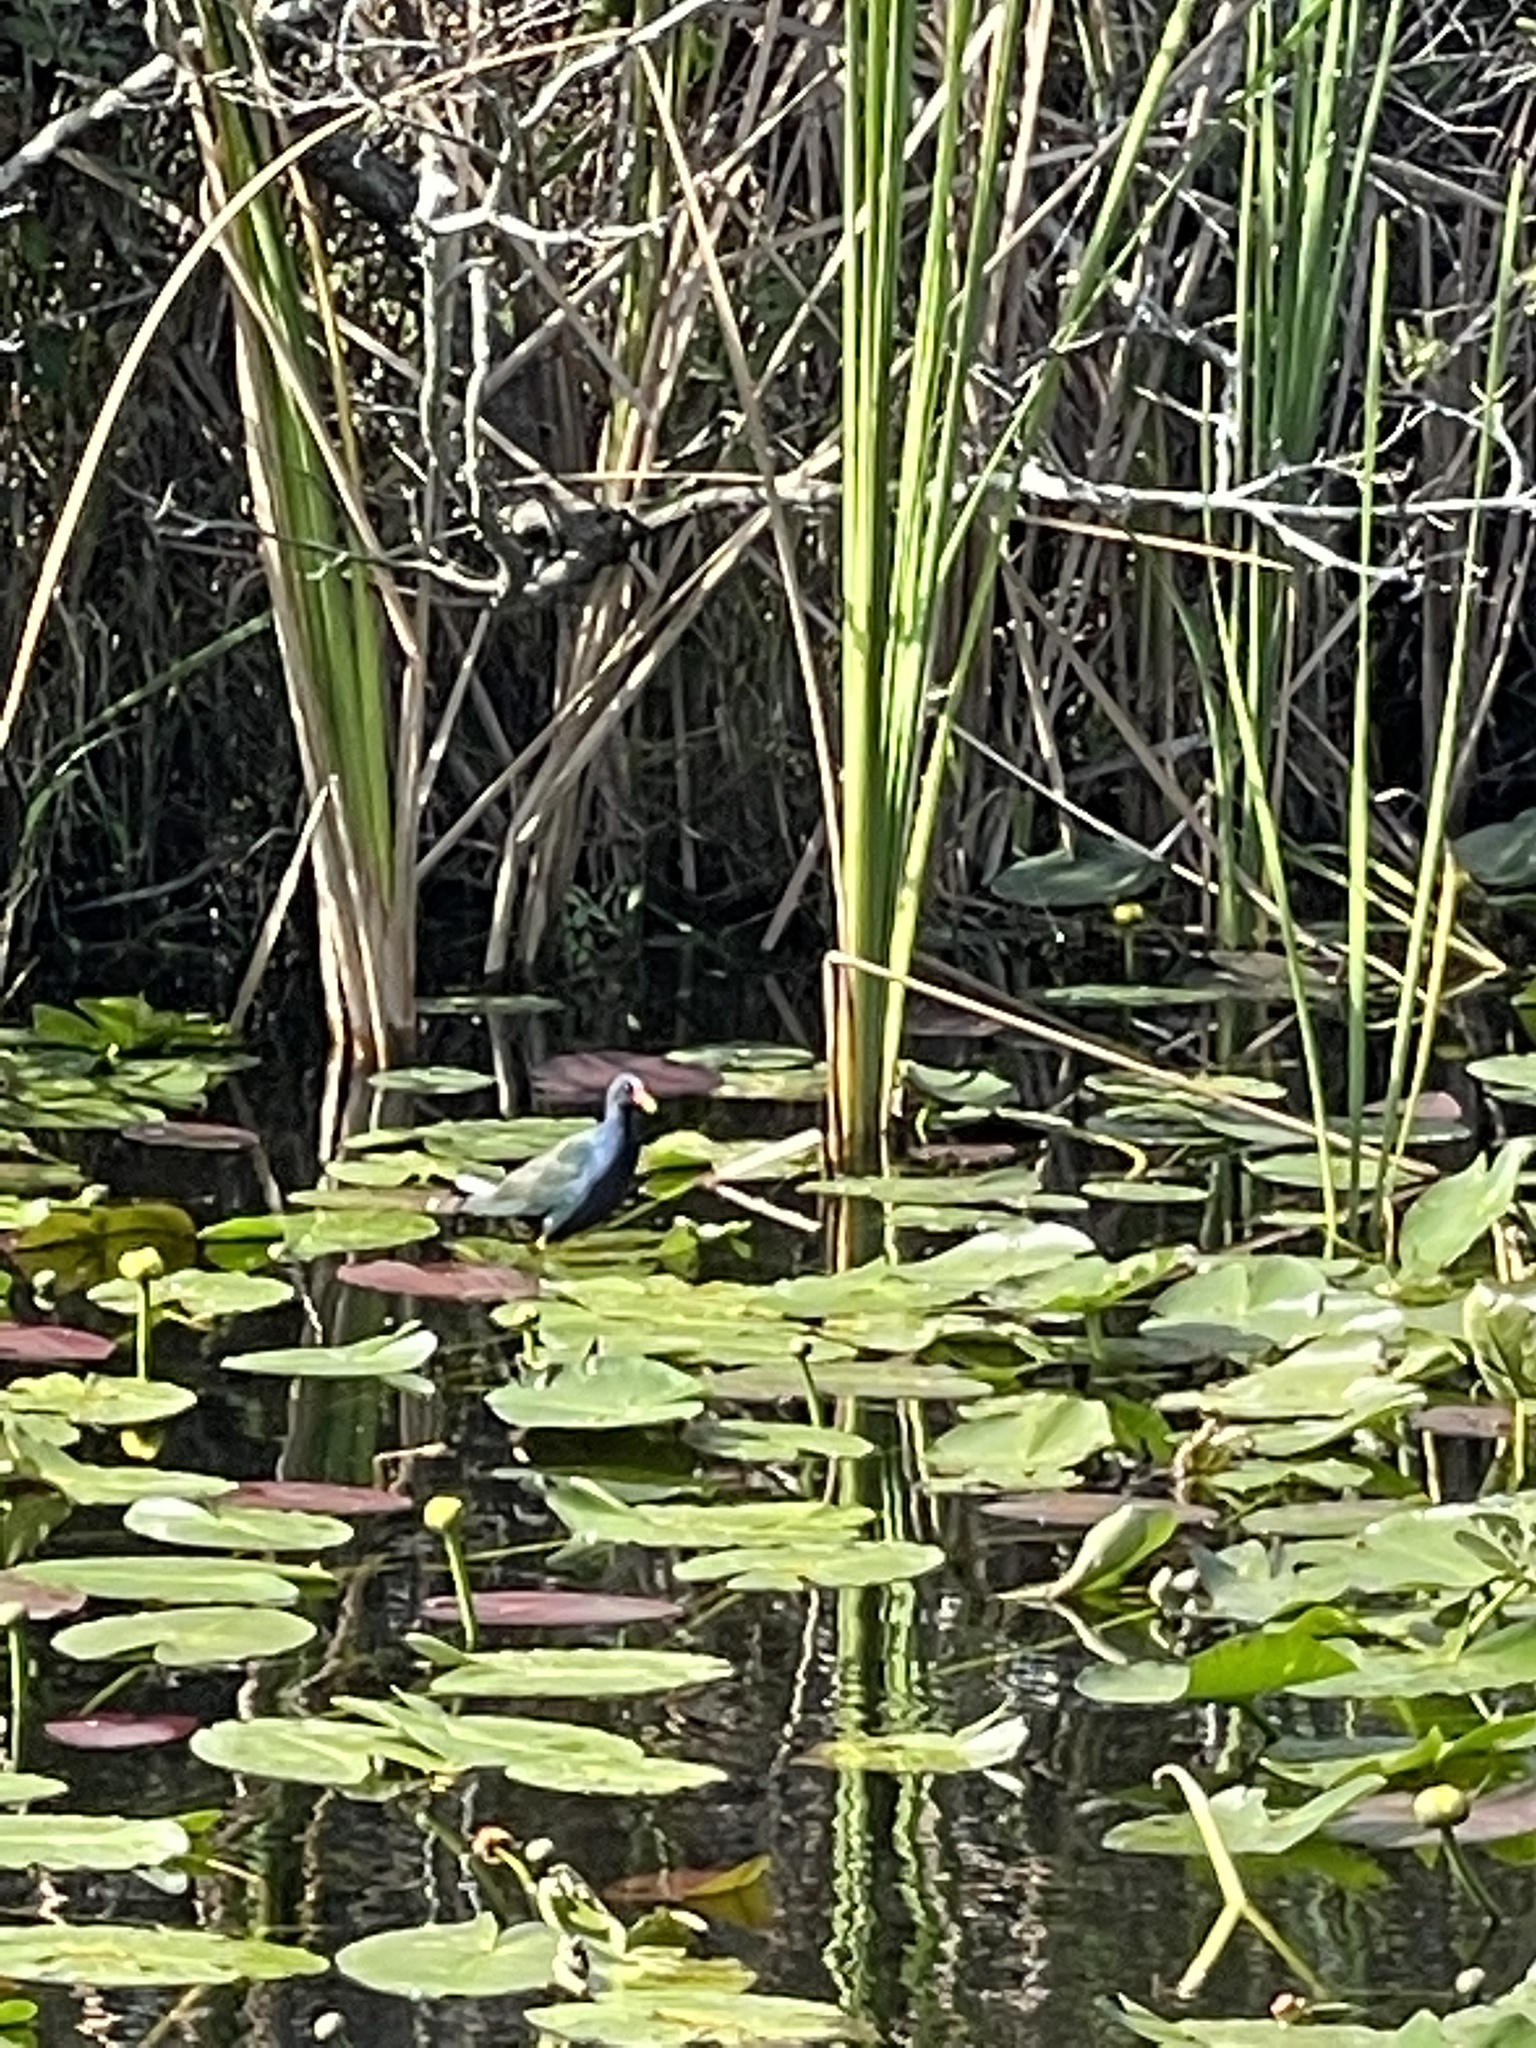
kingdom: Animalia
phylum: Chordata
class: Aves
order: Gruiformes
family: Rallidae
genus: Porphyrio
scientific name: Porphyrio martinica
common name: Purple gallinule
